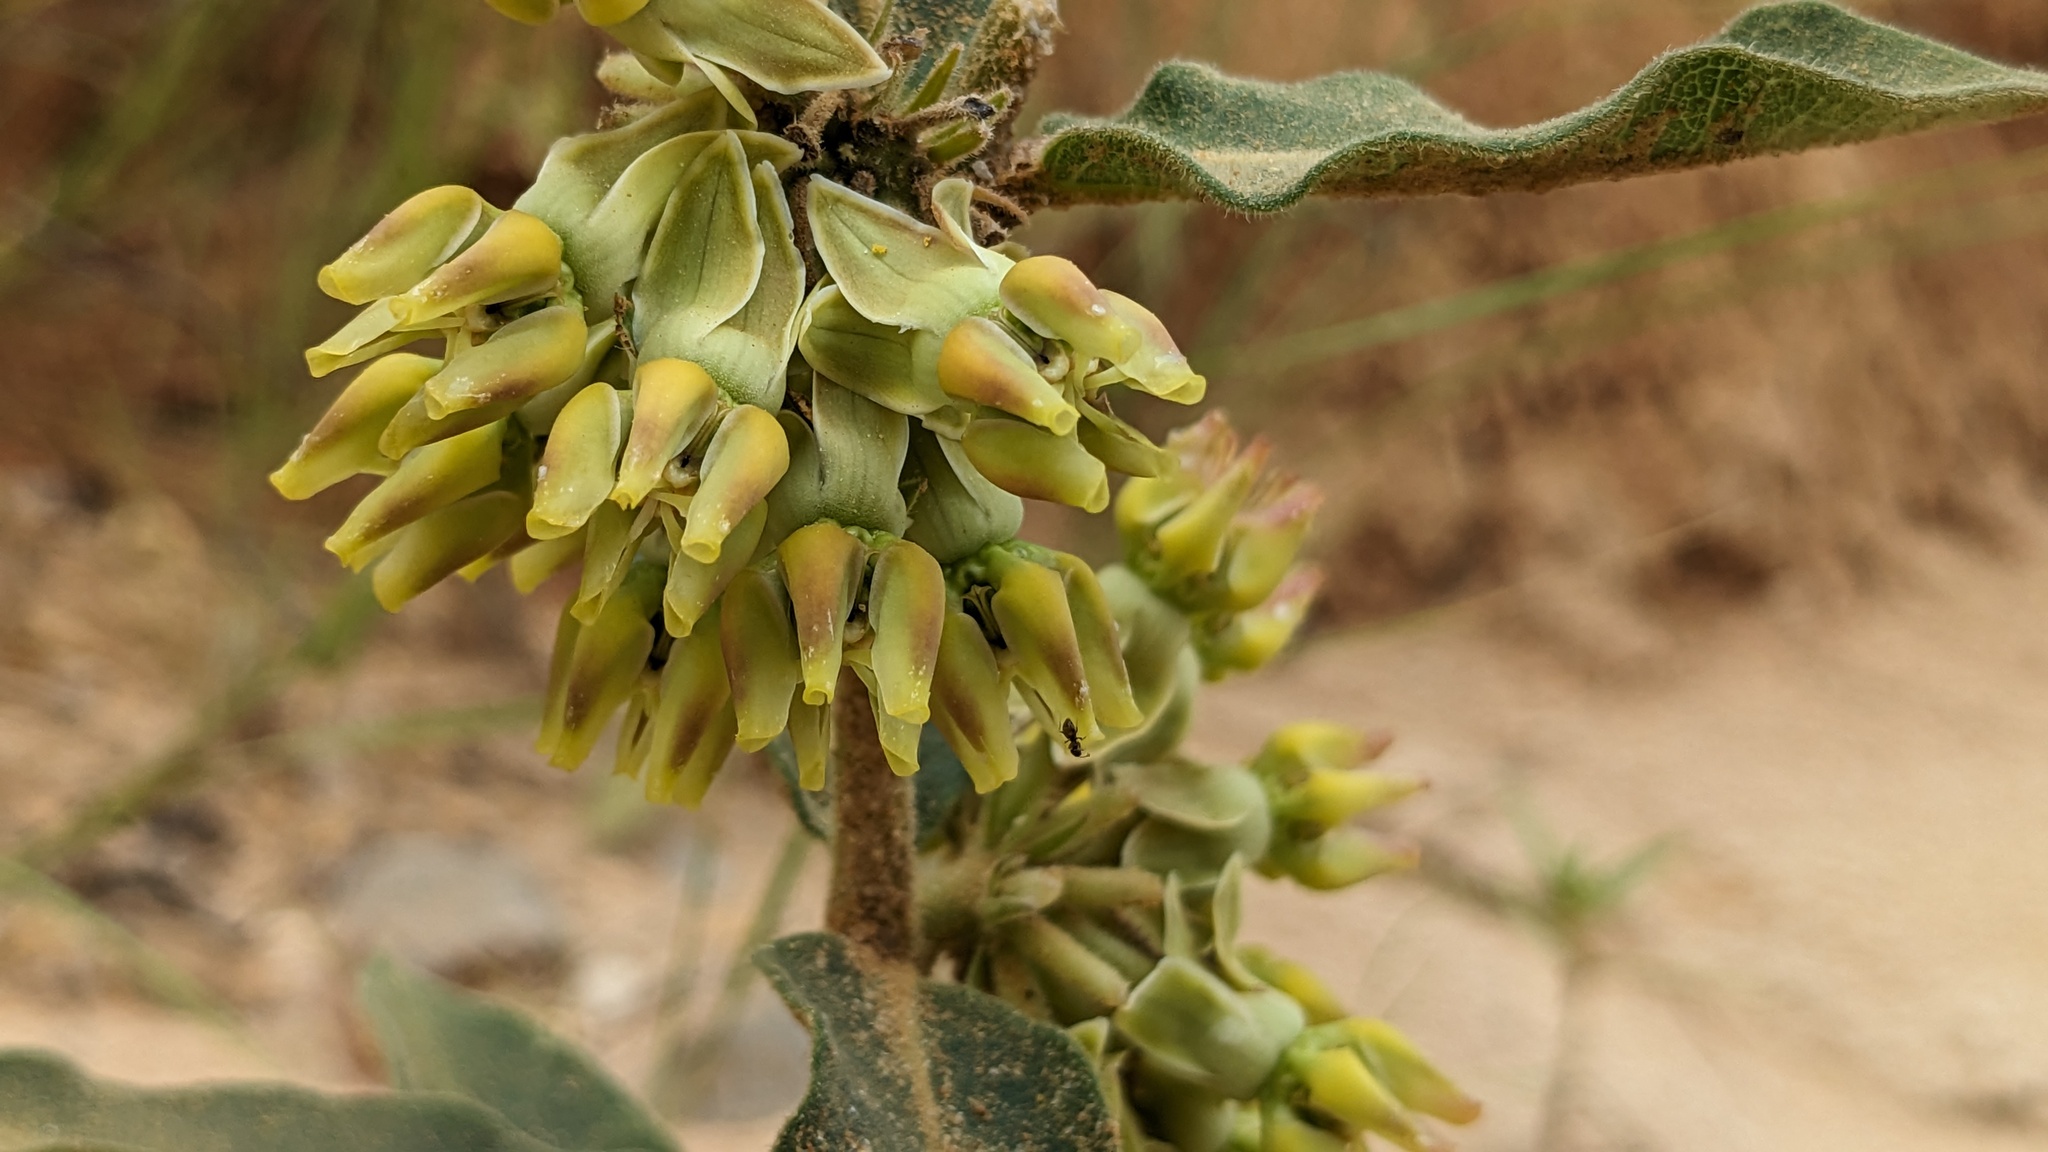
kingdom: Plantae
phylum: Tracheophyta
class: Magnoliopsida
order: Gentianales
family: Apocynaceae
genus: Asclepias
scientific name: Asclepias obovata
